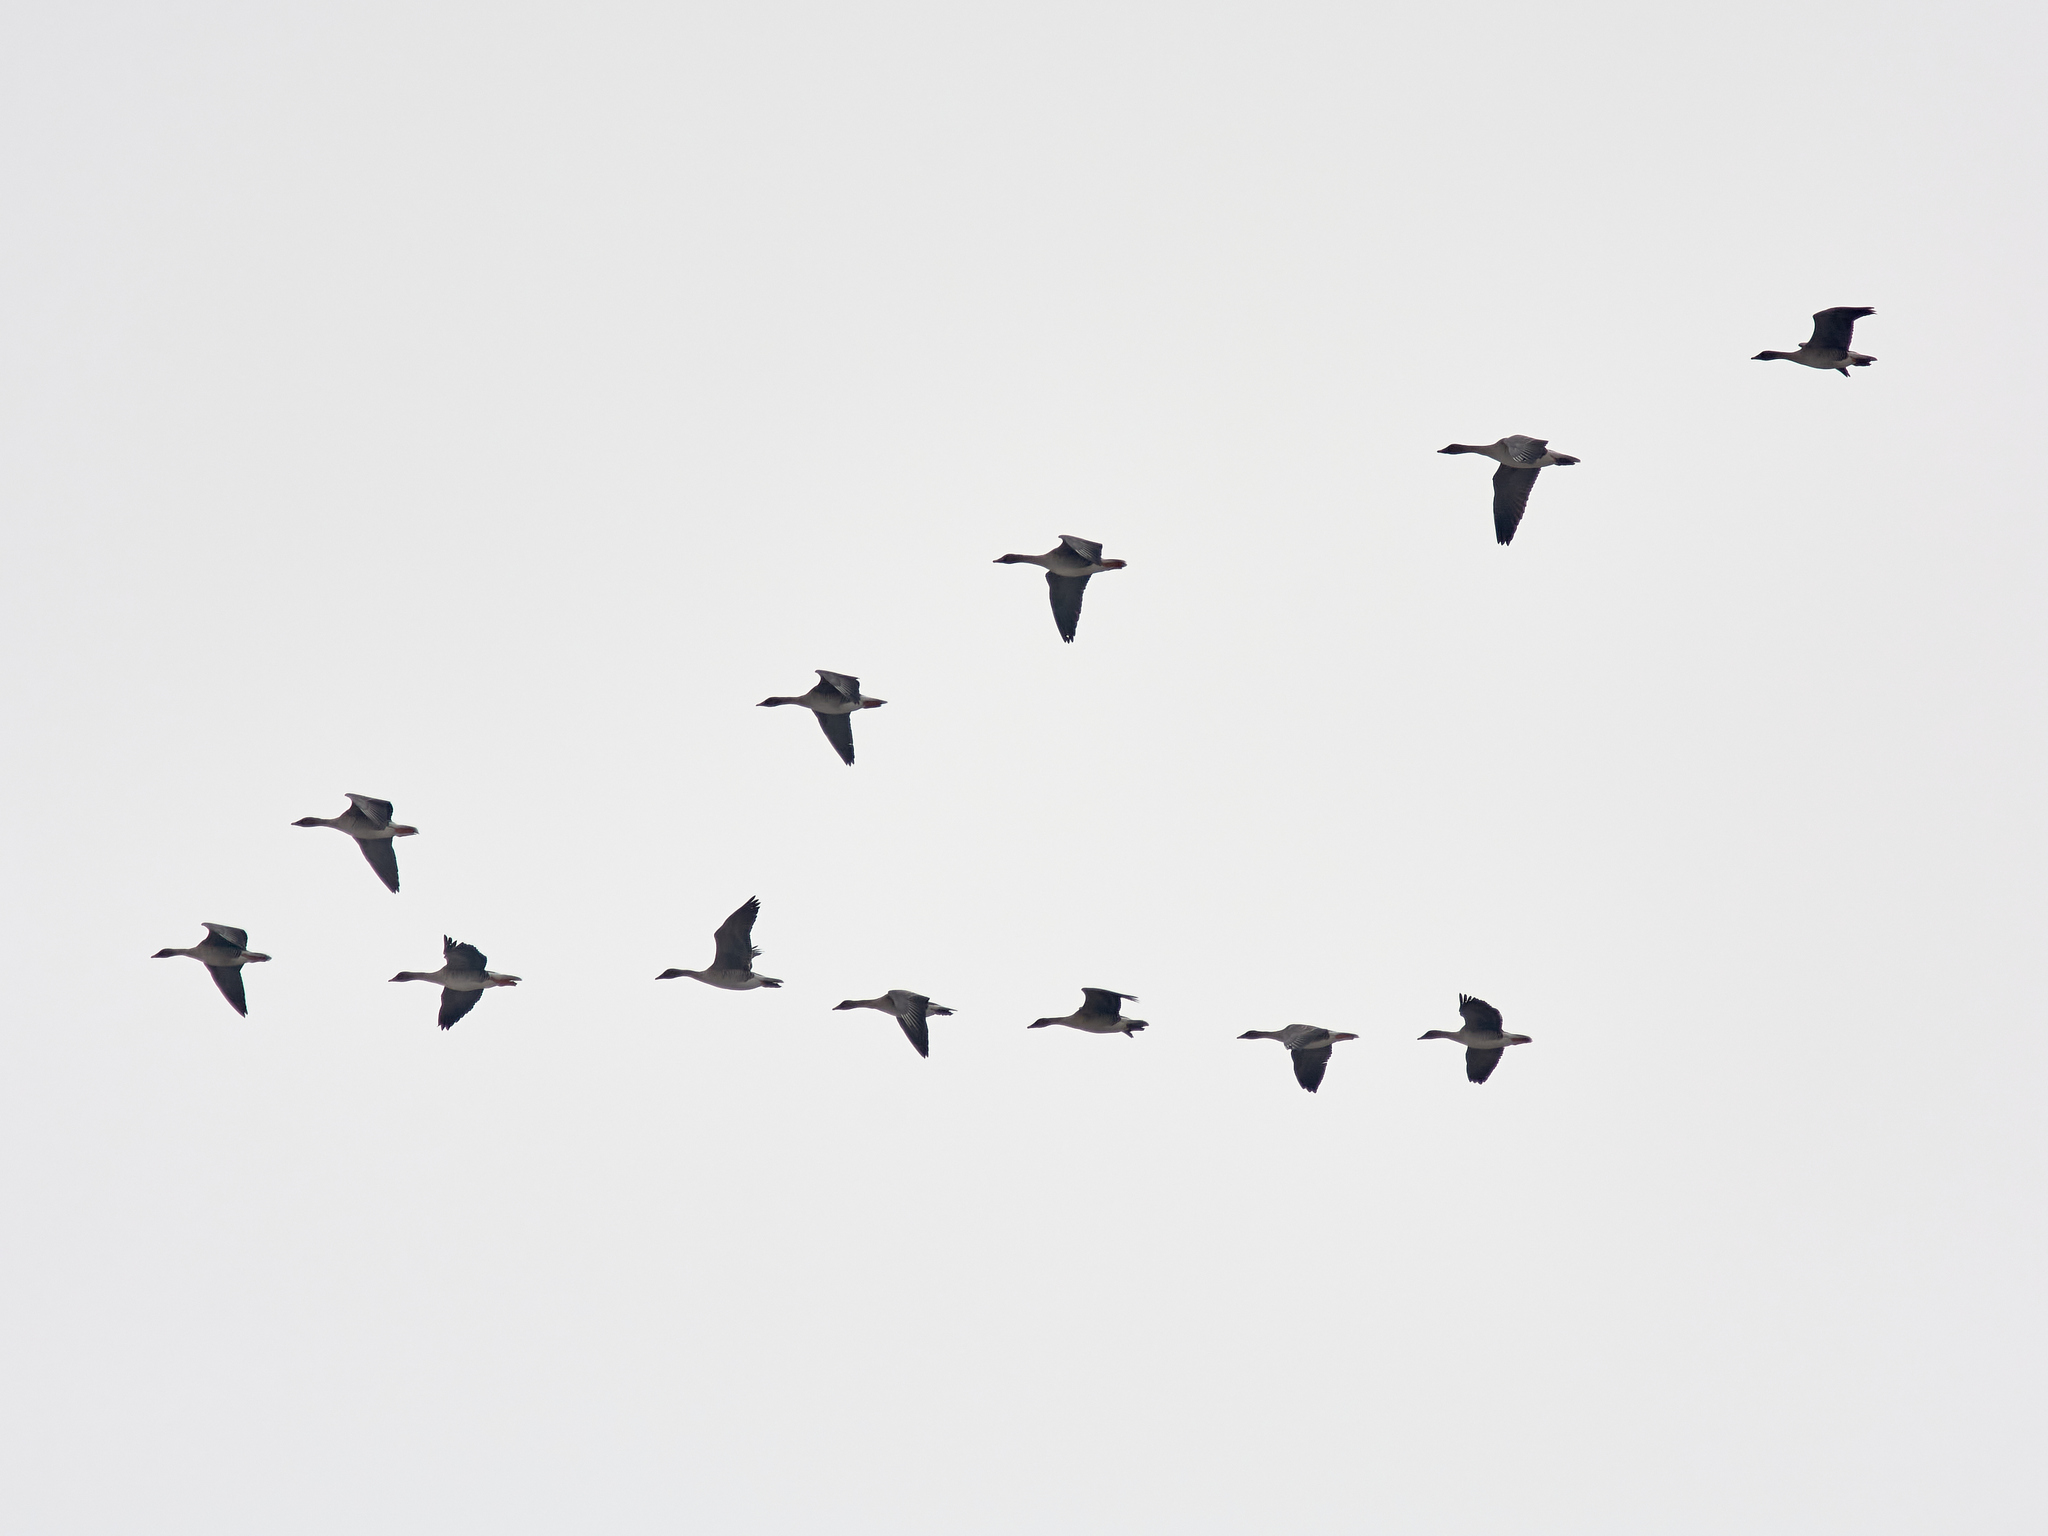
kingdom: Animalia
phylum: Chordata
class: Aves
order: Anseriformes
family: Anatidae
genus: Anser
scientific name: Anser fabalis
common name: Bean goose
